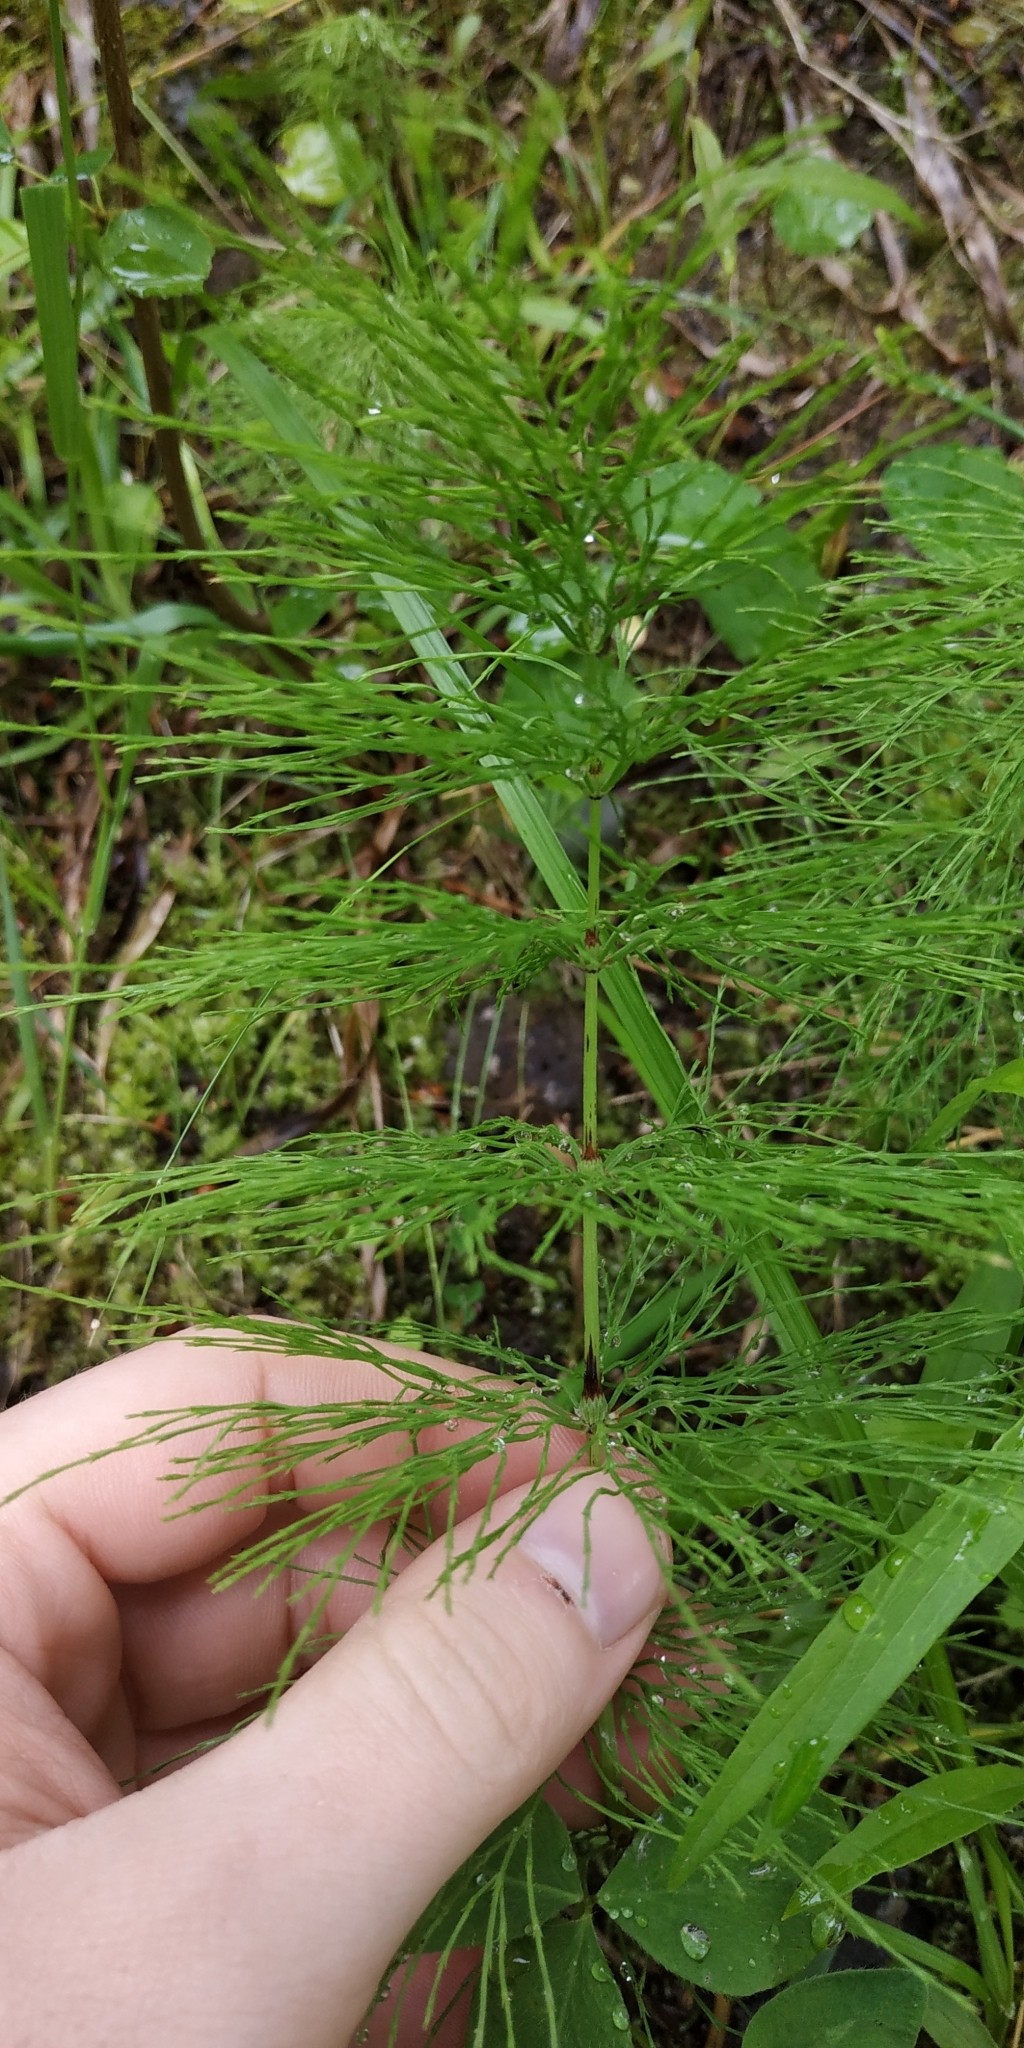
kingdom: Plantae
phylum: Tracheophyta
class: Polypodiopsida
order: Equisetales
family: Equisetaceae
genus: Equisetum
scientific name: Equisetum sylvaticum
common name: Wood horsetail
